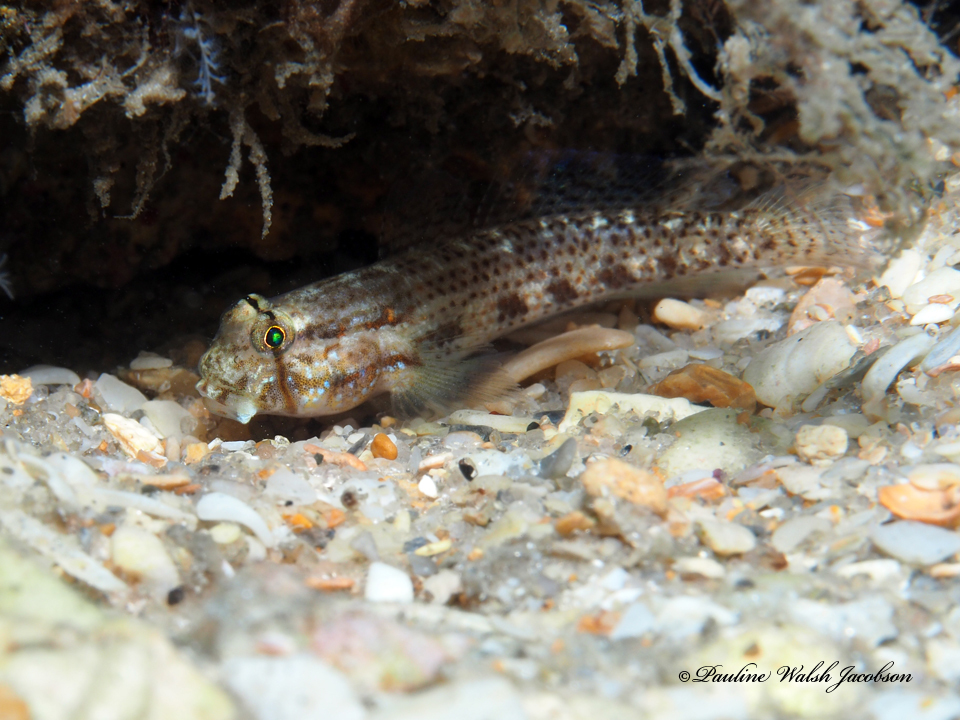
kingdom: Animalia
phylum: Chordata
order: Perciformes
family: Gobiidae
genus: Gnatholepis
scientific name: Gnatholepis thompsoni
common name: Goldspot goby
